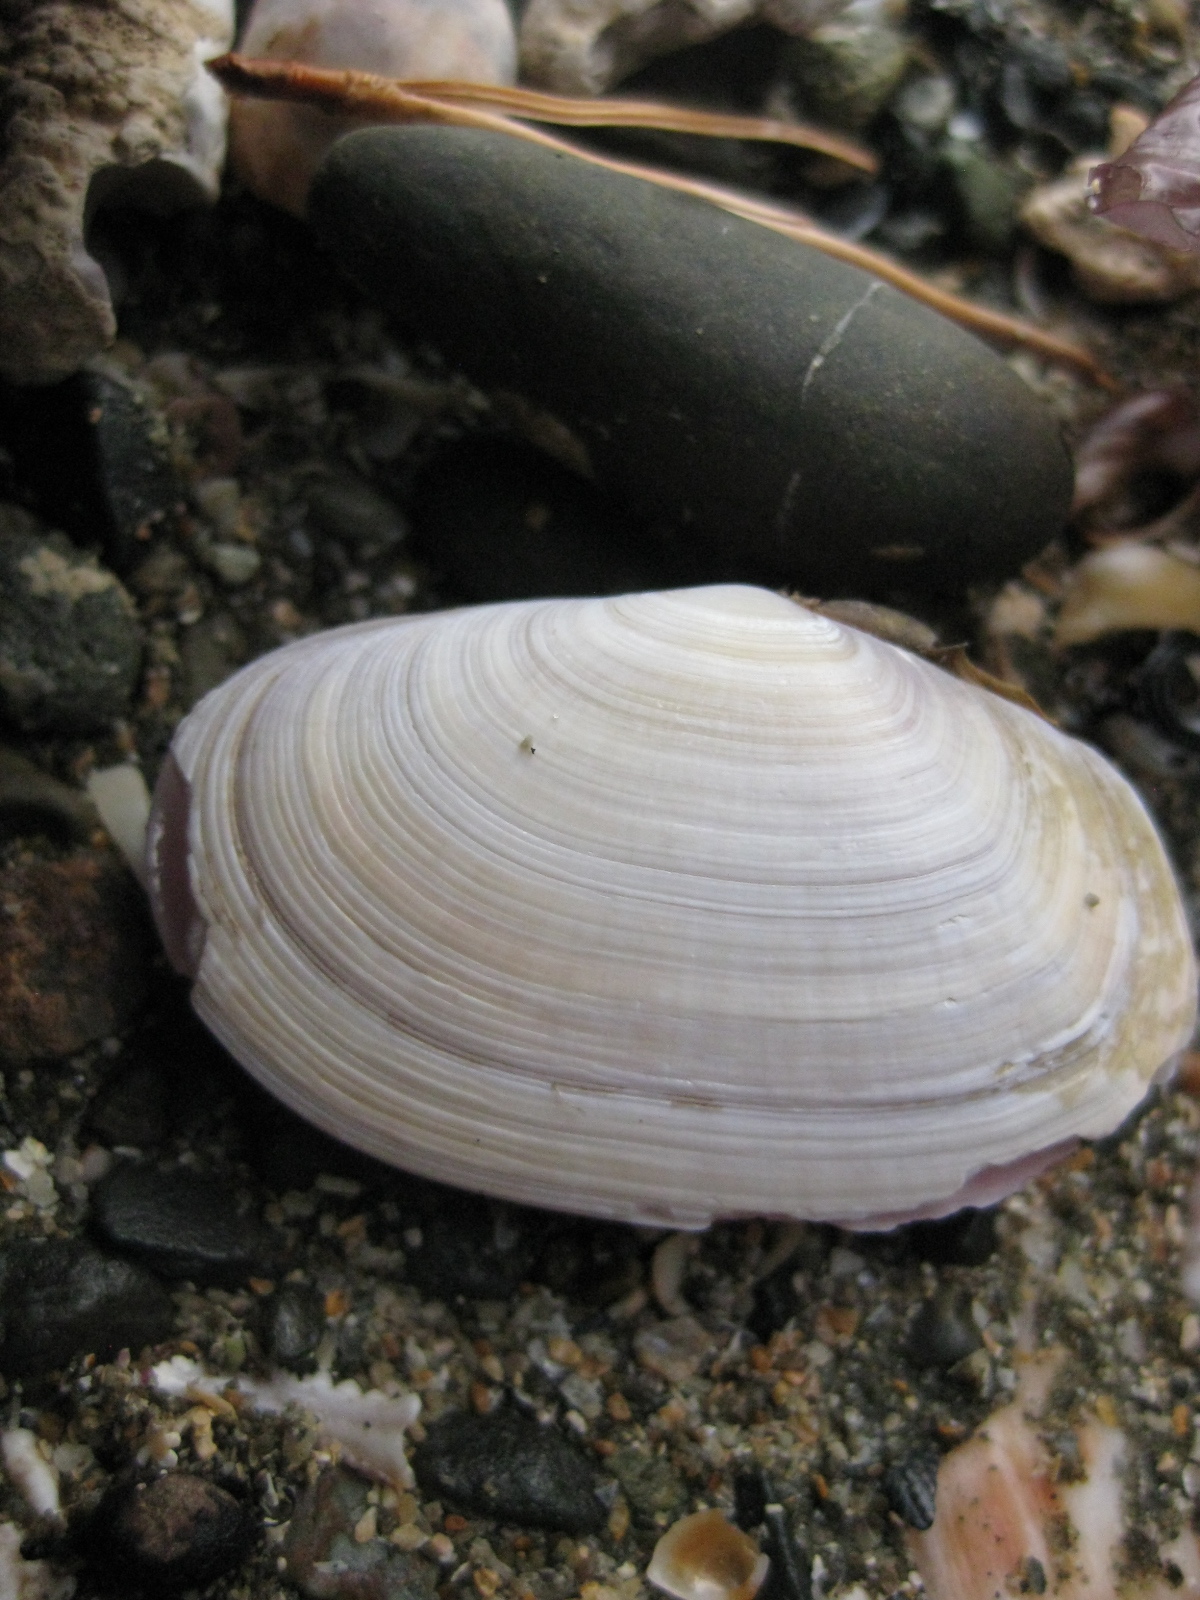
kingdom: Animalia
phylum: Mollusca
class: Bivalvia
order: Cardiida
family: Psammobiidae
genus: Gari
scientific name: Gari stangeri
